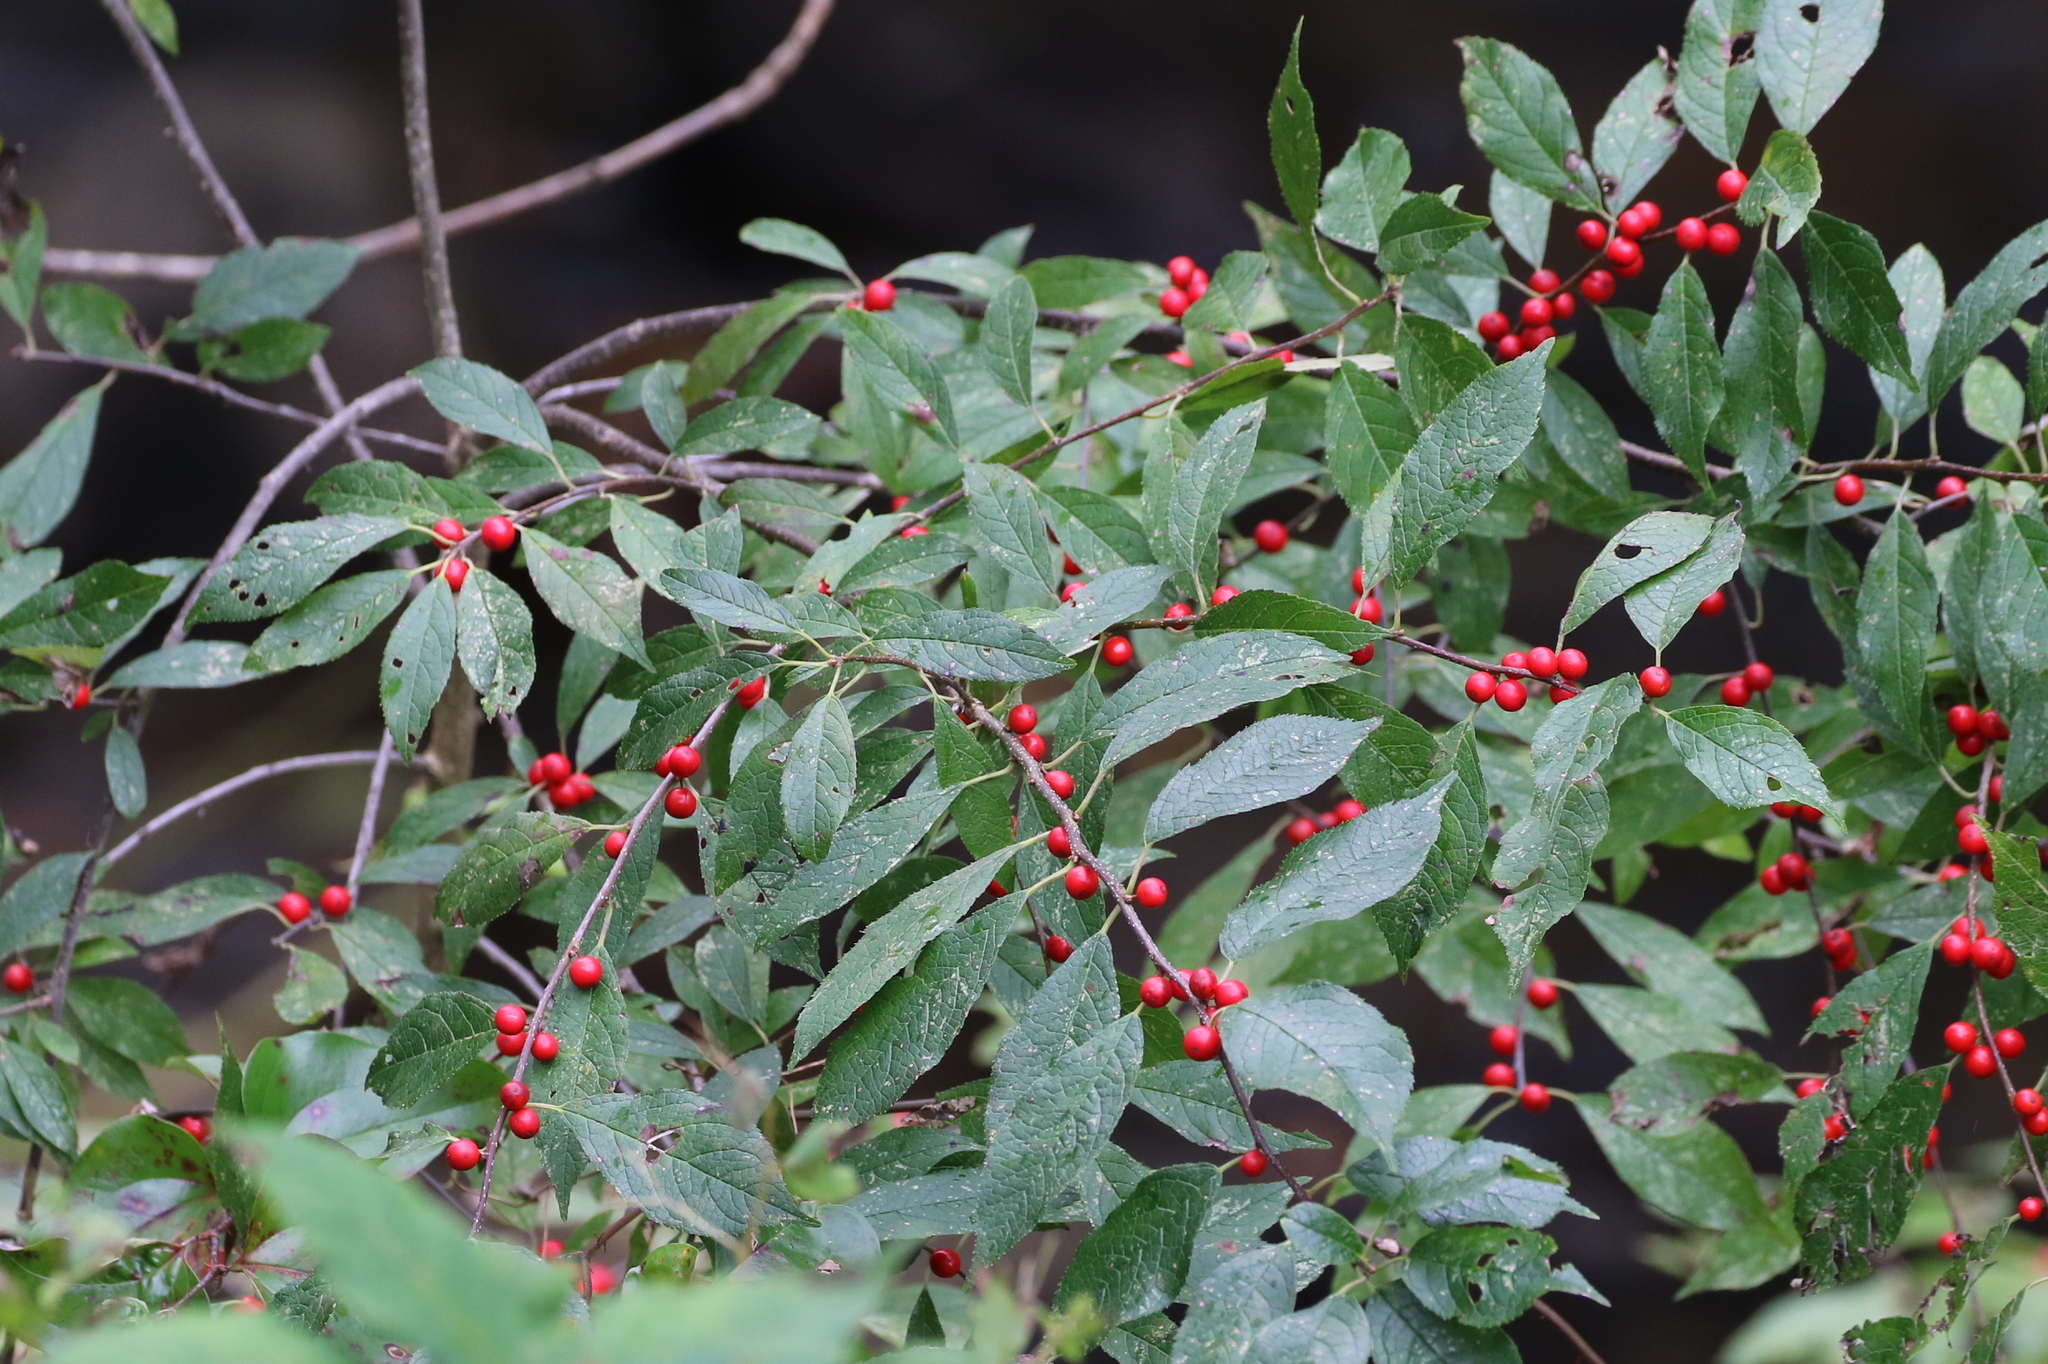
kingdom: Plantae
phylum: Tracheophyta
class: Magnoliopsida
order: Aquifoliales
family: Aquifoliaceae
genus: Ilex
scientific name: Ilex verticillata
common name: Virginia winterberry
